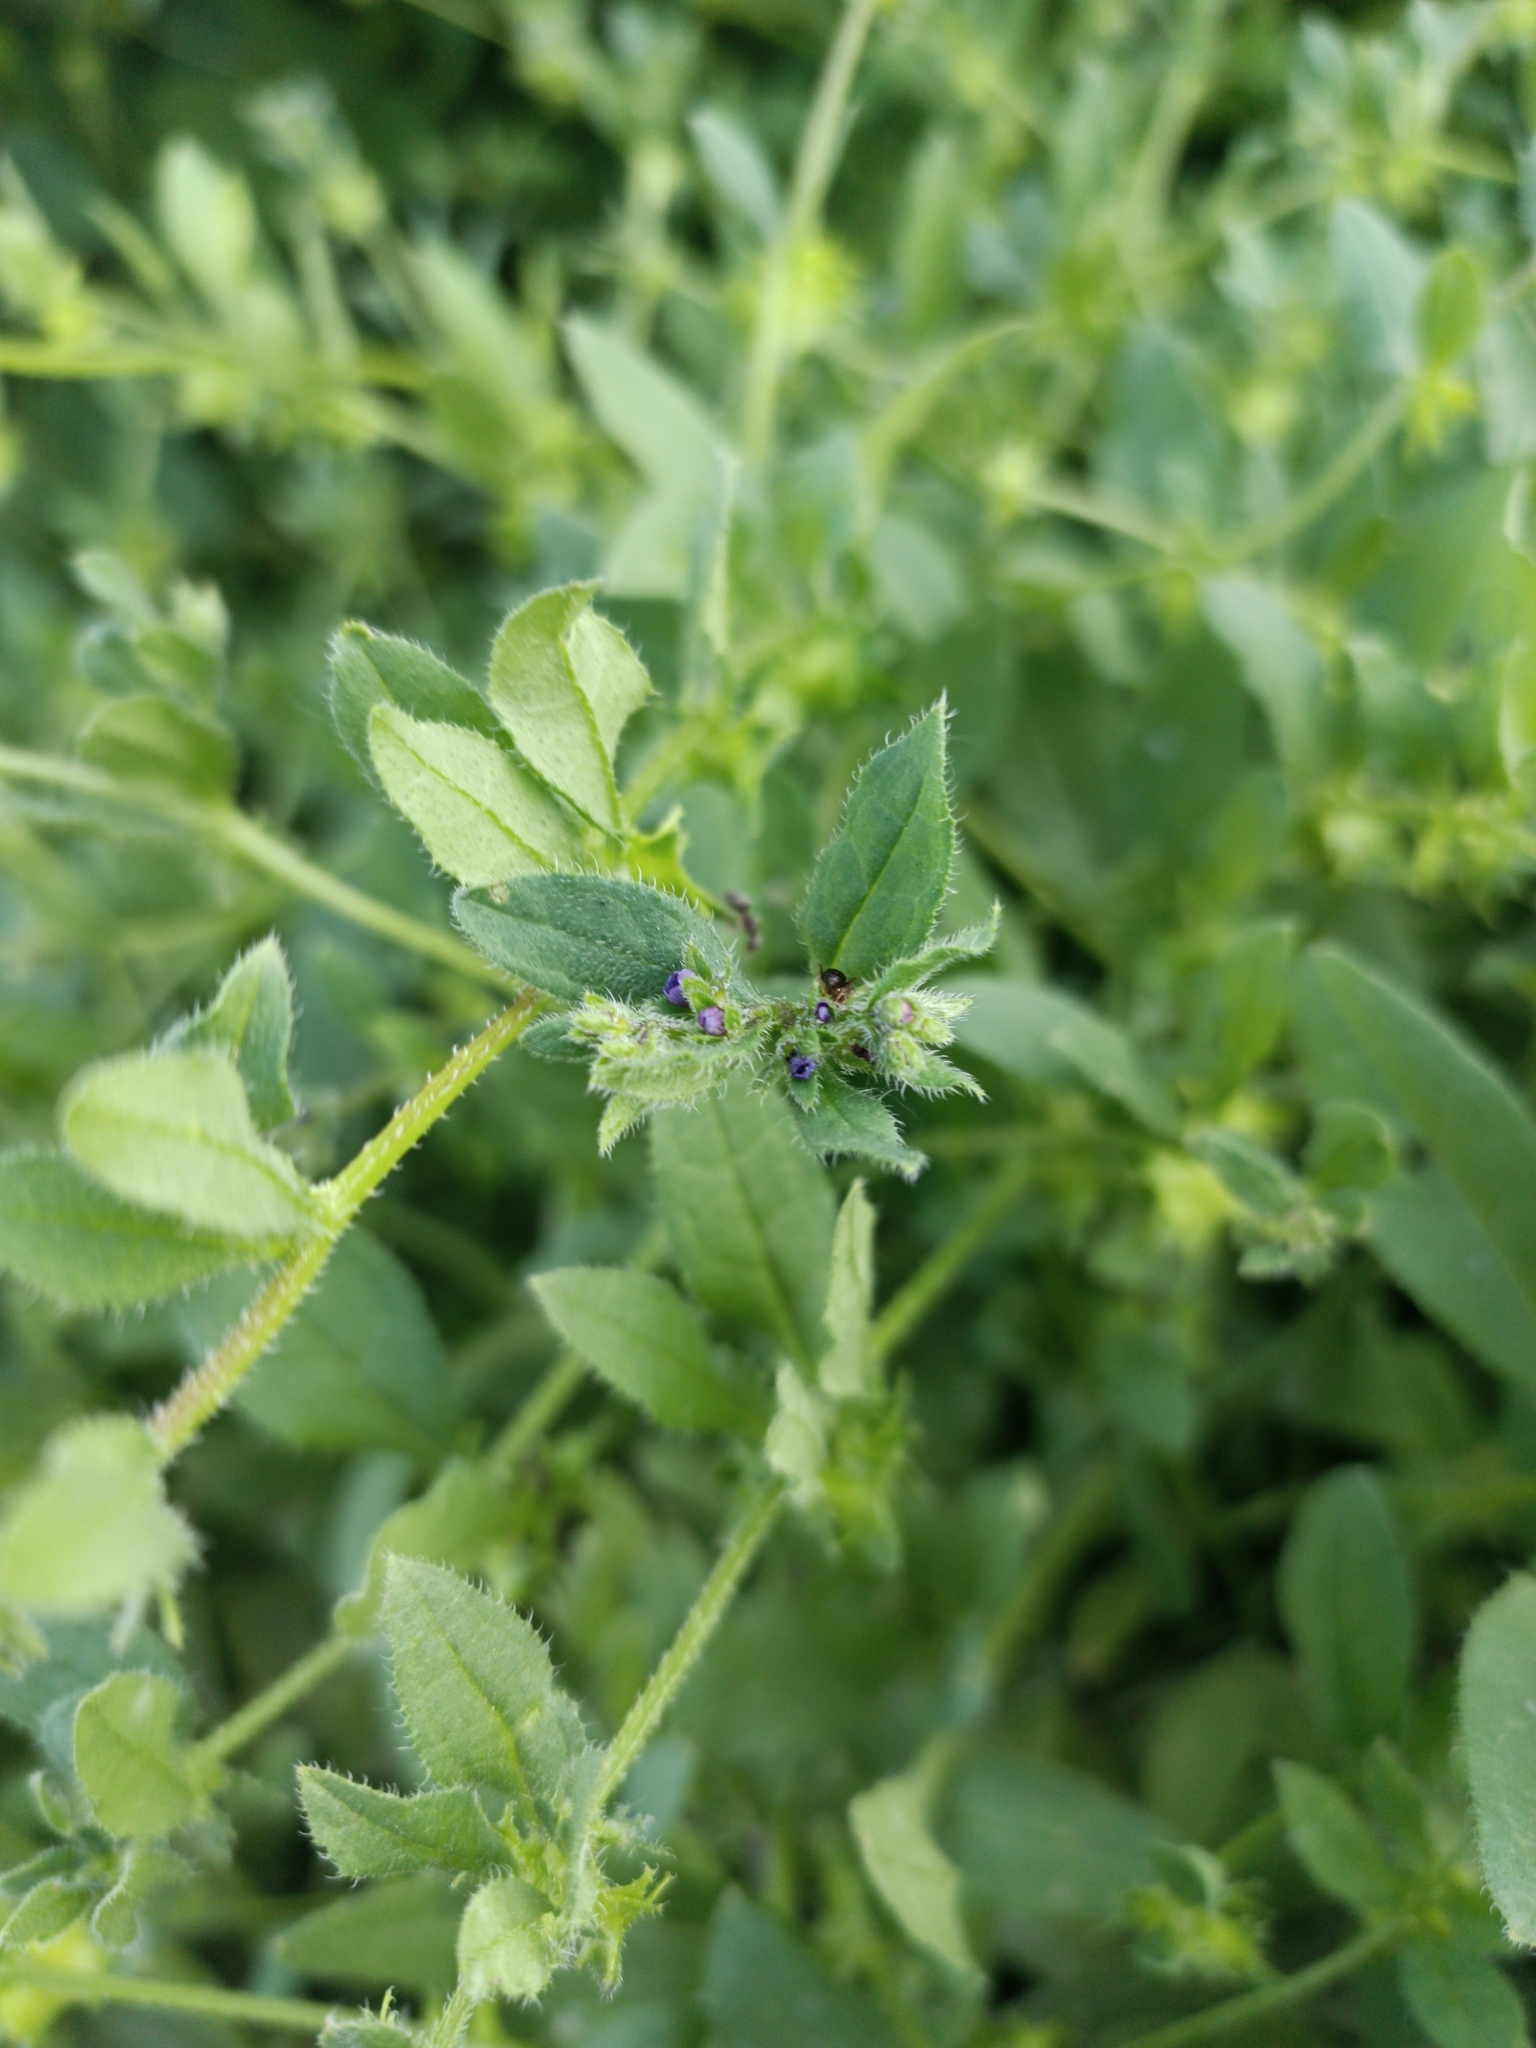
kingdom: Plantae
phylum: Tracheophyta
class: Magnoliopsida
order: Boraginales
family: Boraginaceae
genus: Asperugo
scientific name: Asperugo procumbens
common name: Madwort
